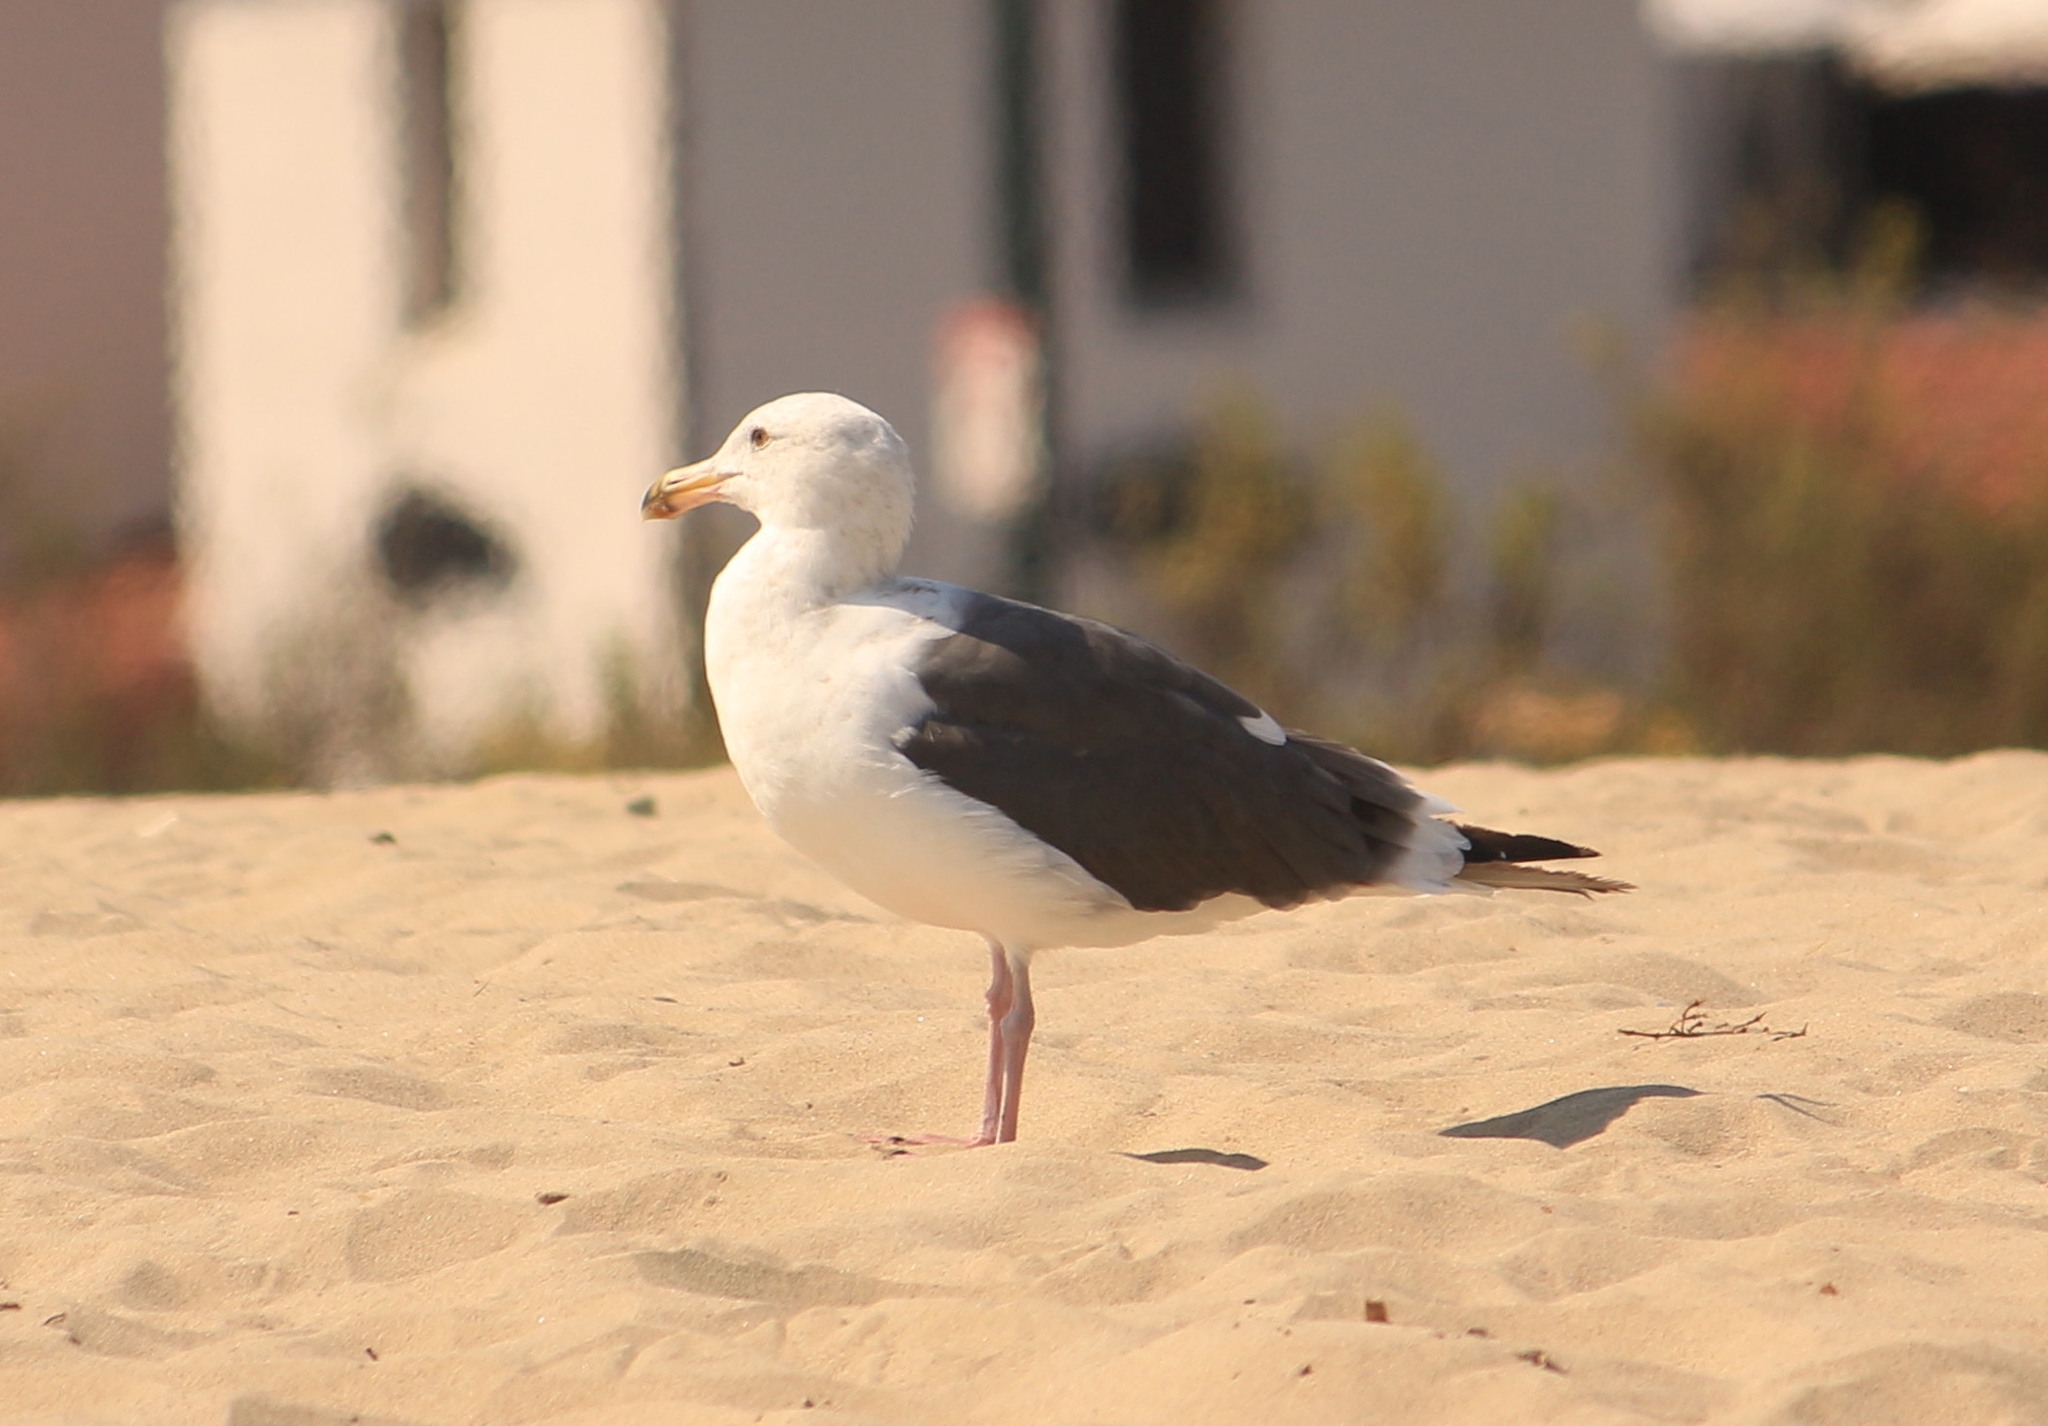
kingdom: Animalia
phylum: Chordata
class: Aves
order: Charadriiformes
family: Laridae
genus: Larus
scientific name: Larus occidentalis
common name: Western gull
